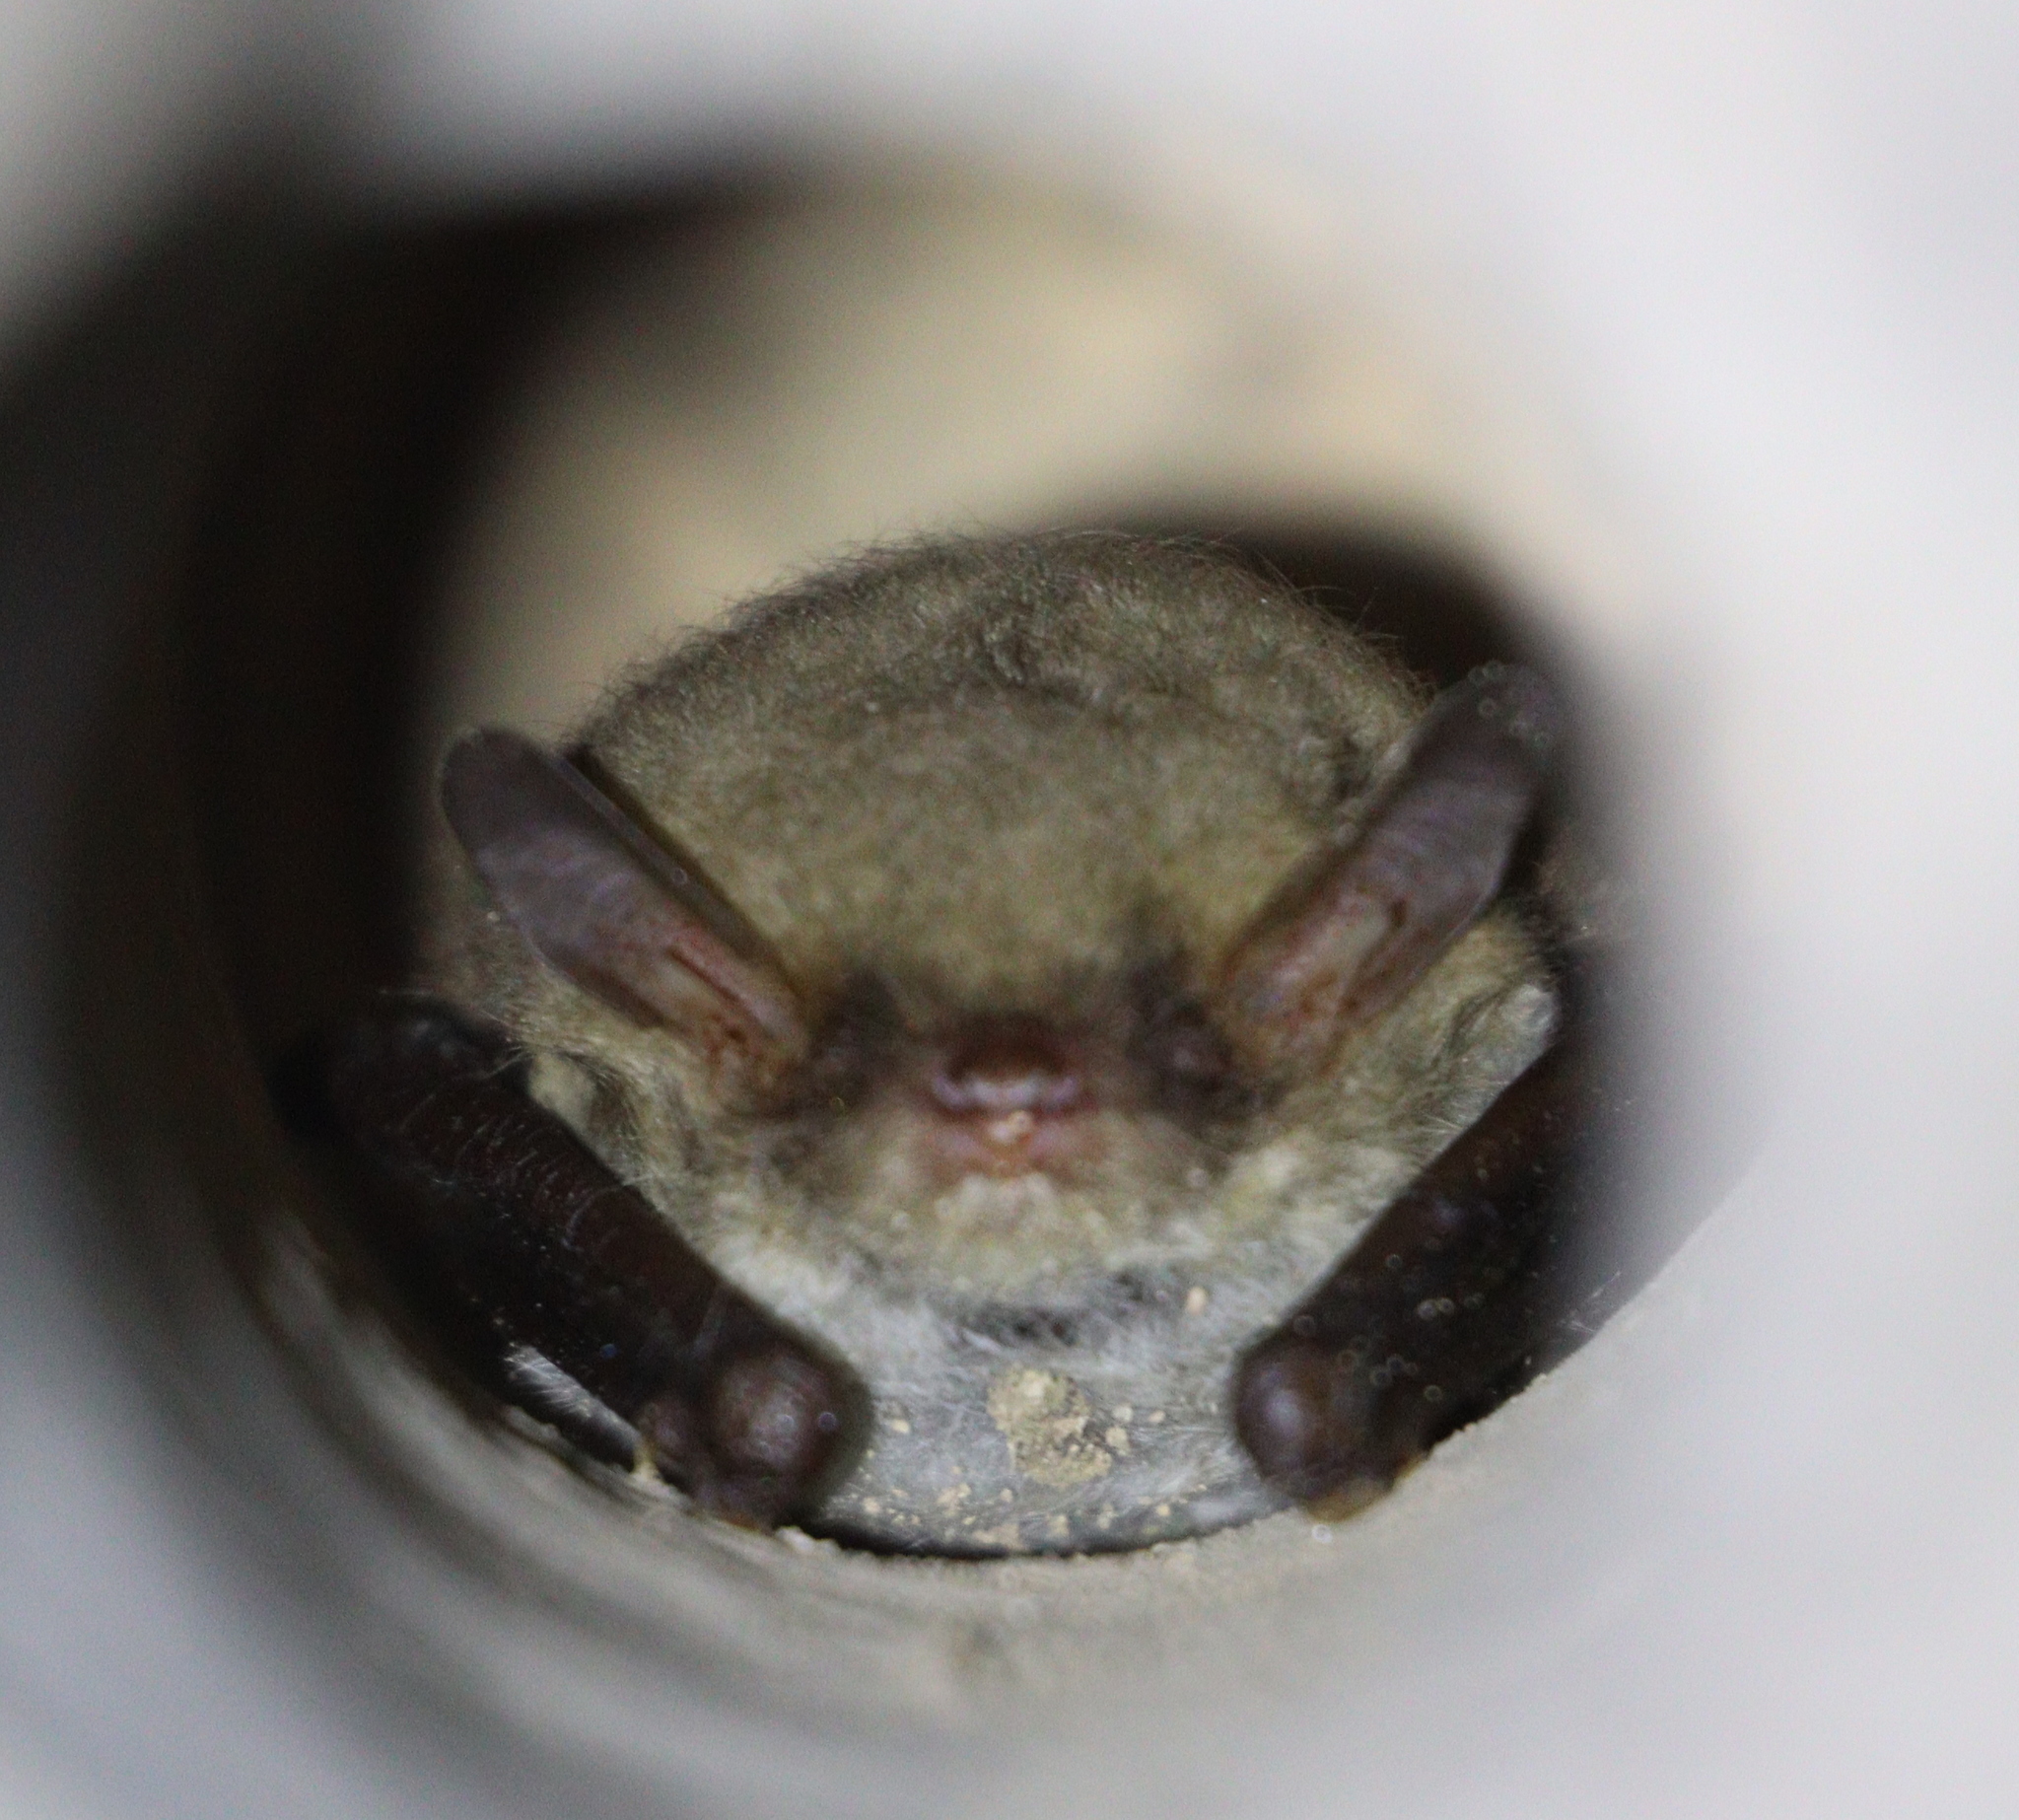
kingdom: Animalia
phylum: Chordata
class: Mammalia
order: Chiroptera
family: Vespertilionidae
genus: Myotis
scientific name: Myotis nattereri
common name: Natterer's bat
